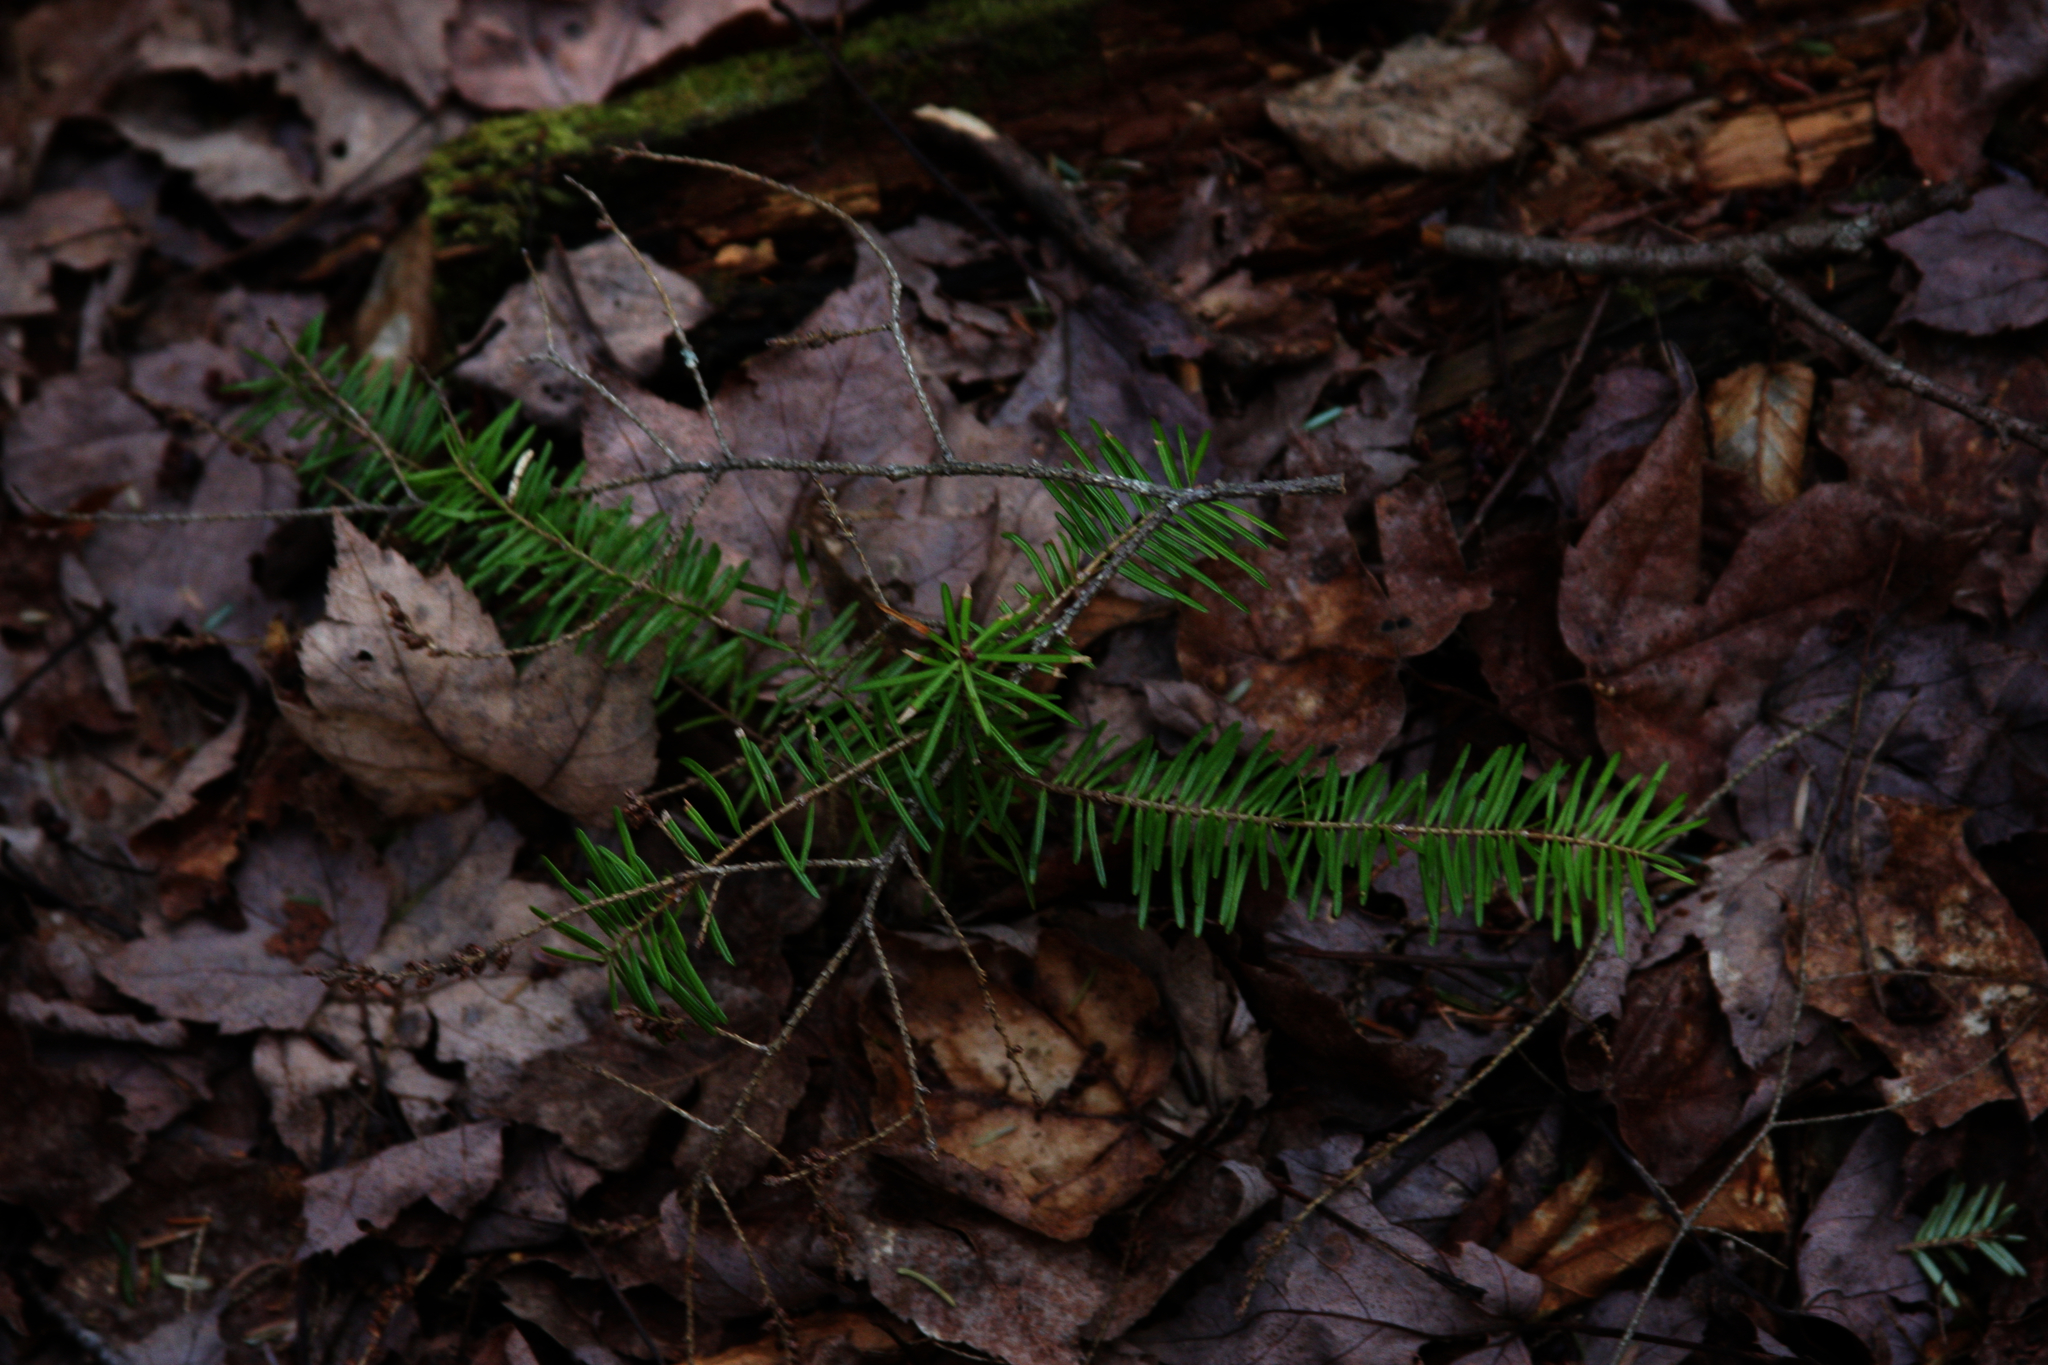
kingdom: Plantae
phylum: Tracheophyta
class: Pinopsida
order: Pinales
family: Pinaceae
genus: Abies
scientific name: Abies balsamea
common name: Balsam fir
